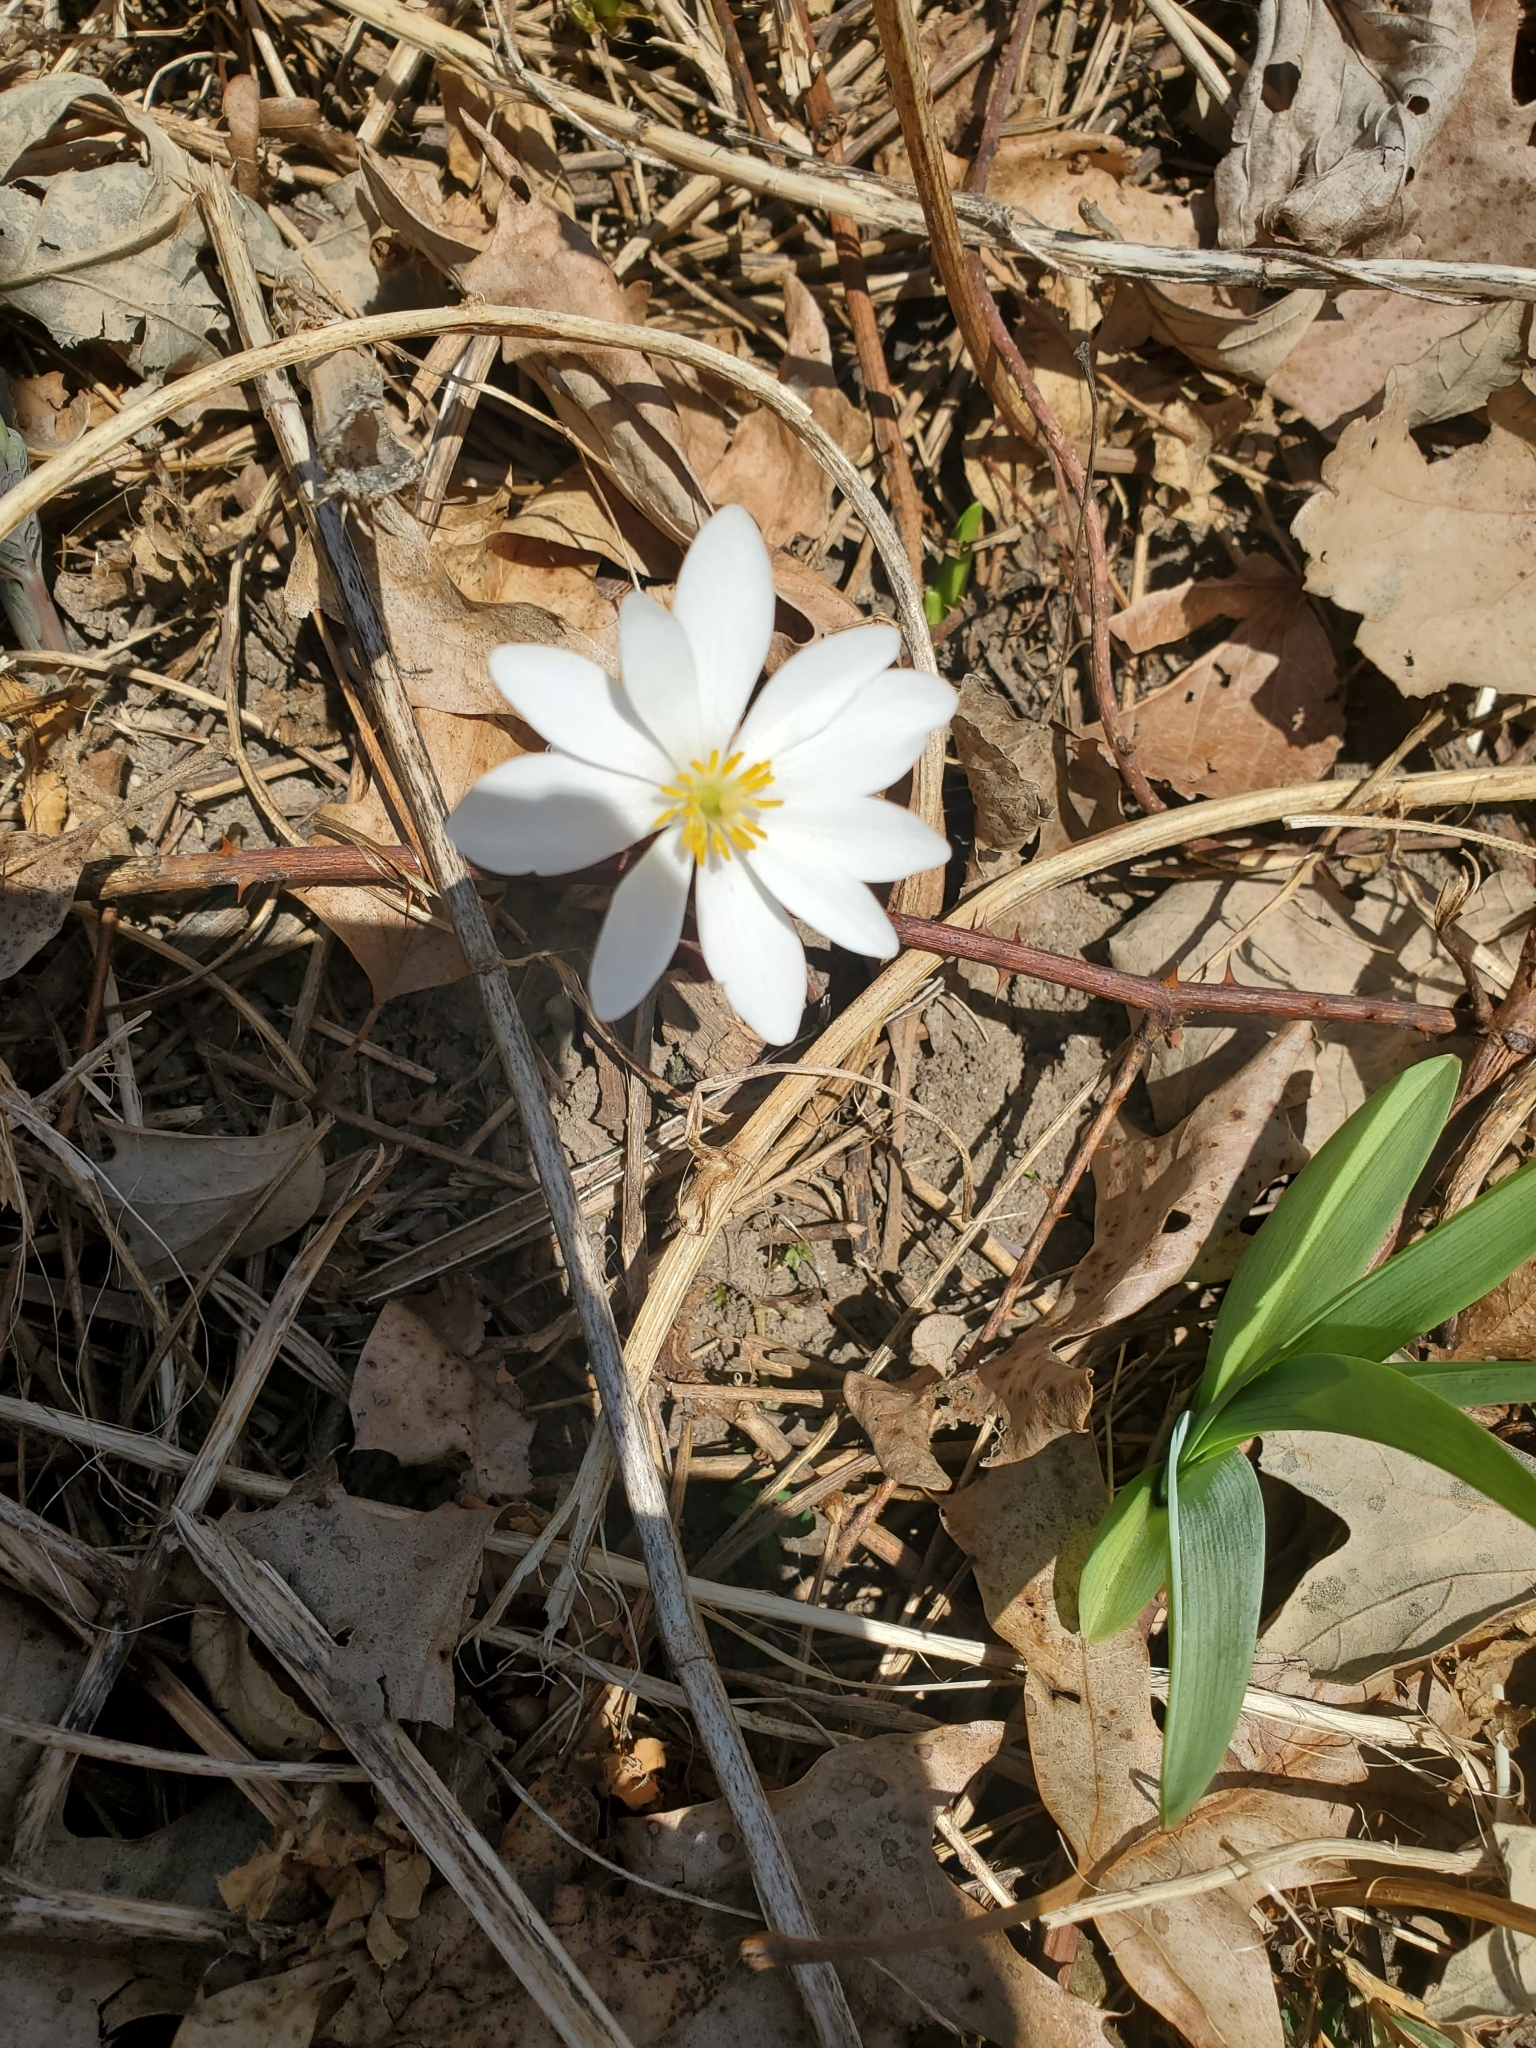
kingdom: Plantae
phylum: Tracheophyta
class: Magnoliopsida
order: Ranunculales
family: Papaveraceae
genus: Sanguinaria
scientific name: Sanguinaria canadensis
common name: Bloodroot
